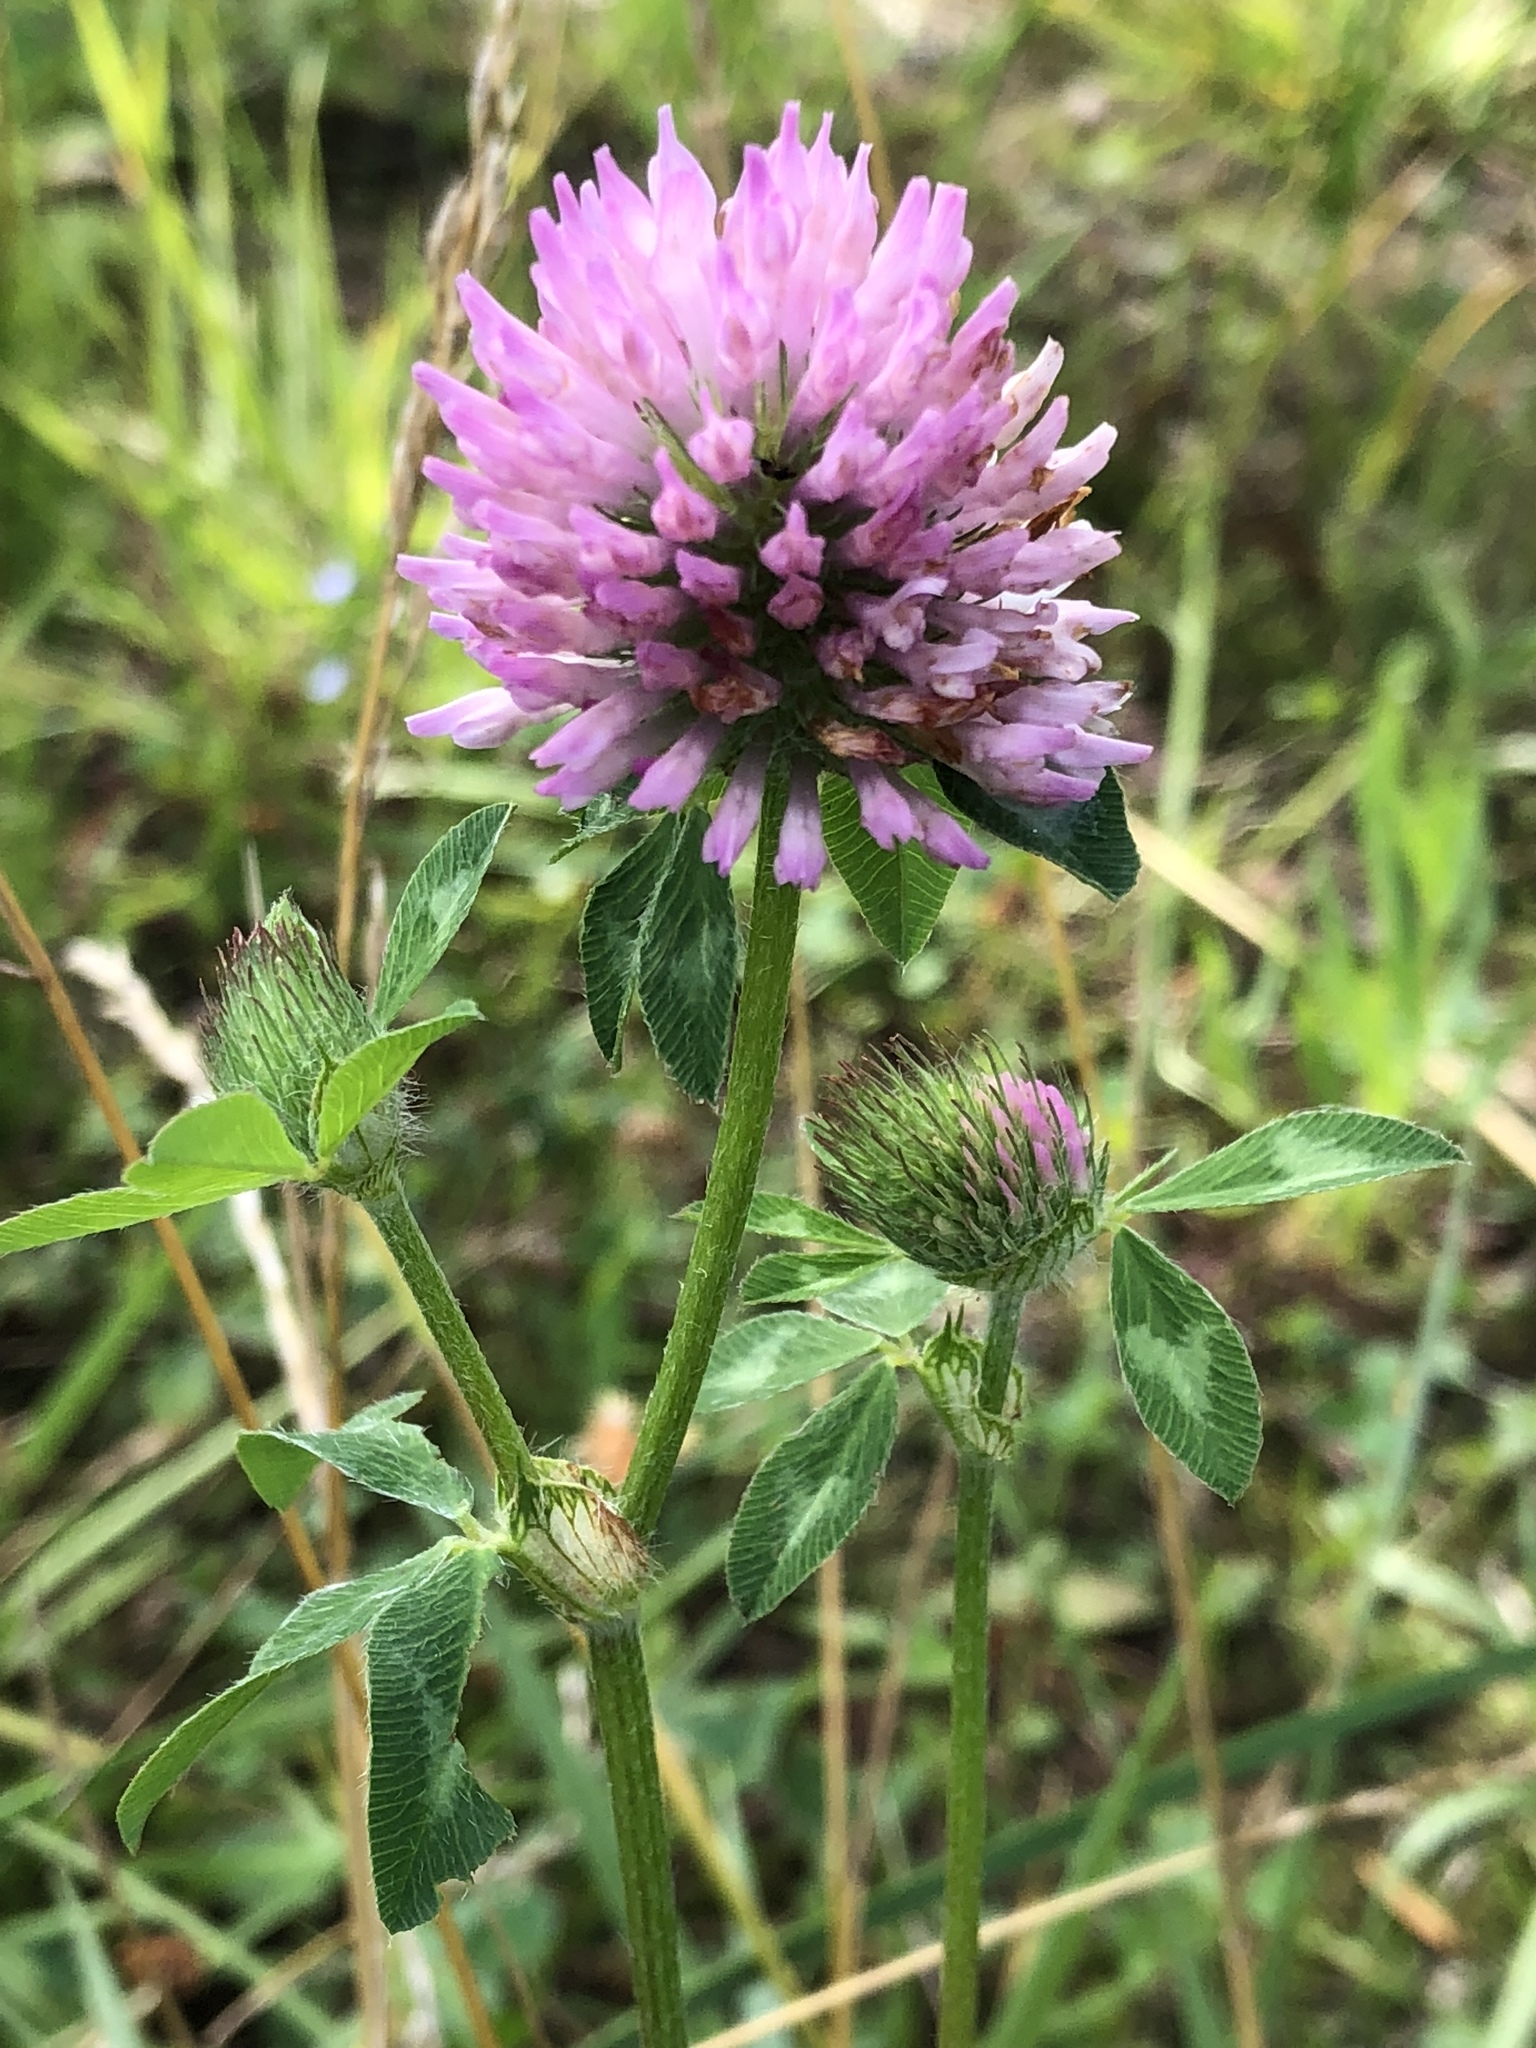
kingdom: Plantae
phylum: Tracheophyta
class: Magnoliopsida
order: Fabales
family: Fabaceae
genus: Trifolium
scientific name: Trifolium pratense
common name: Red clover
